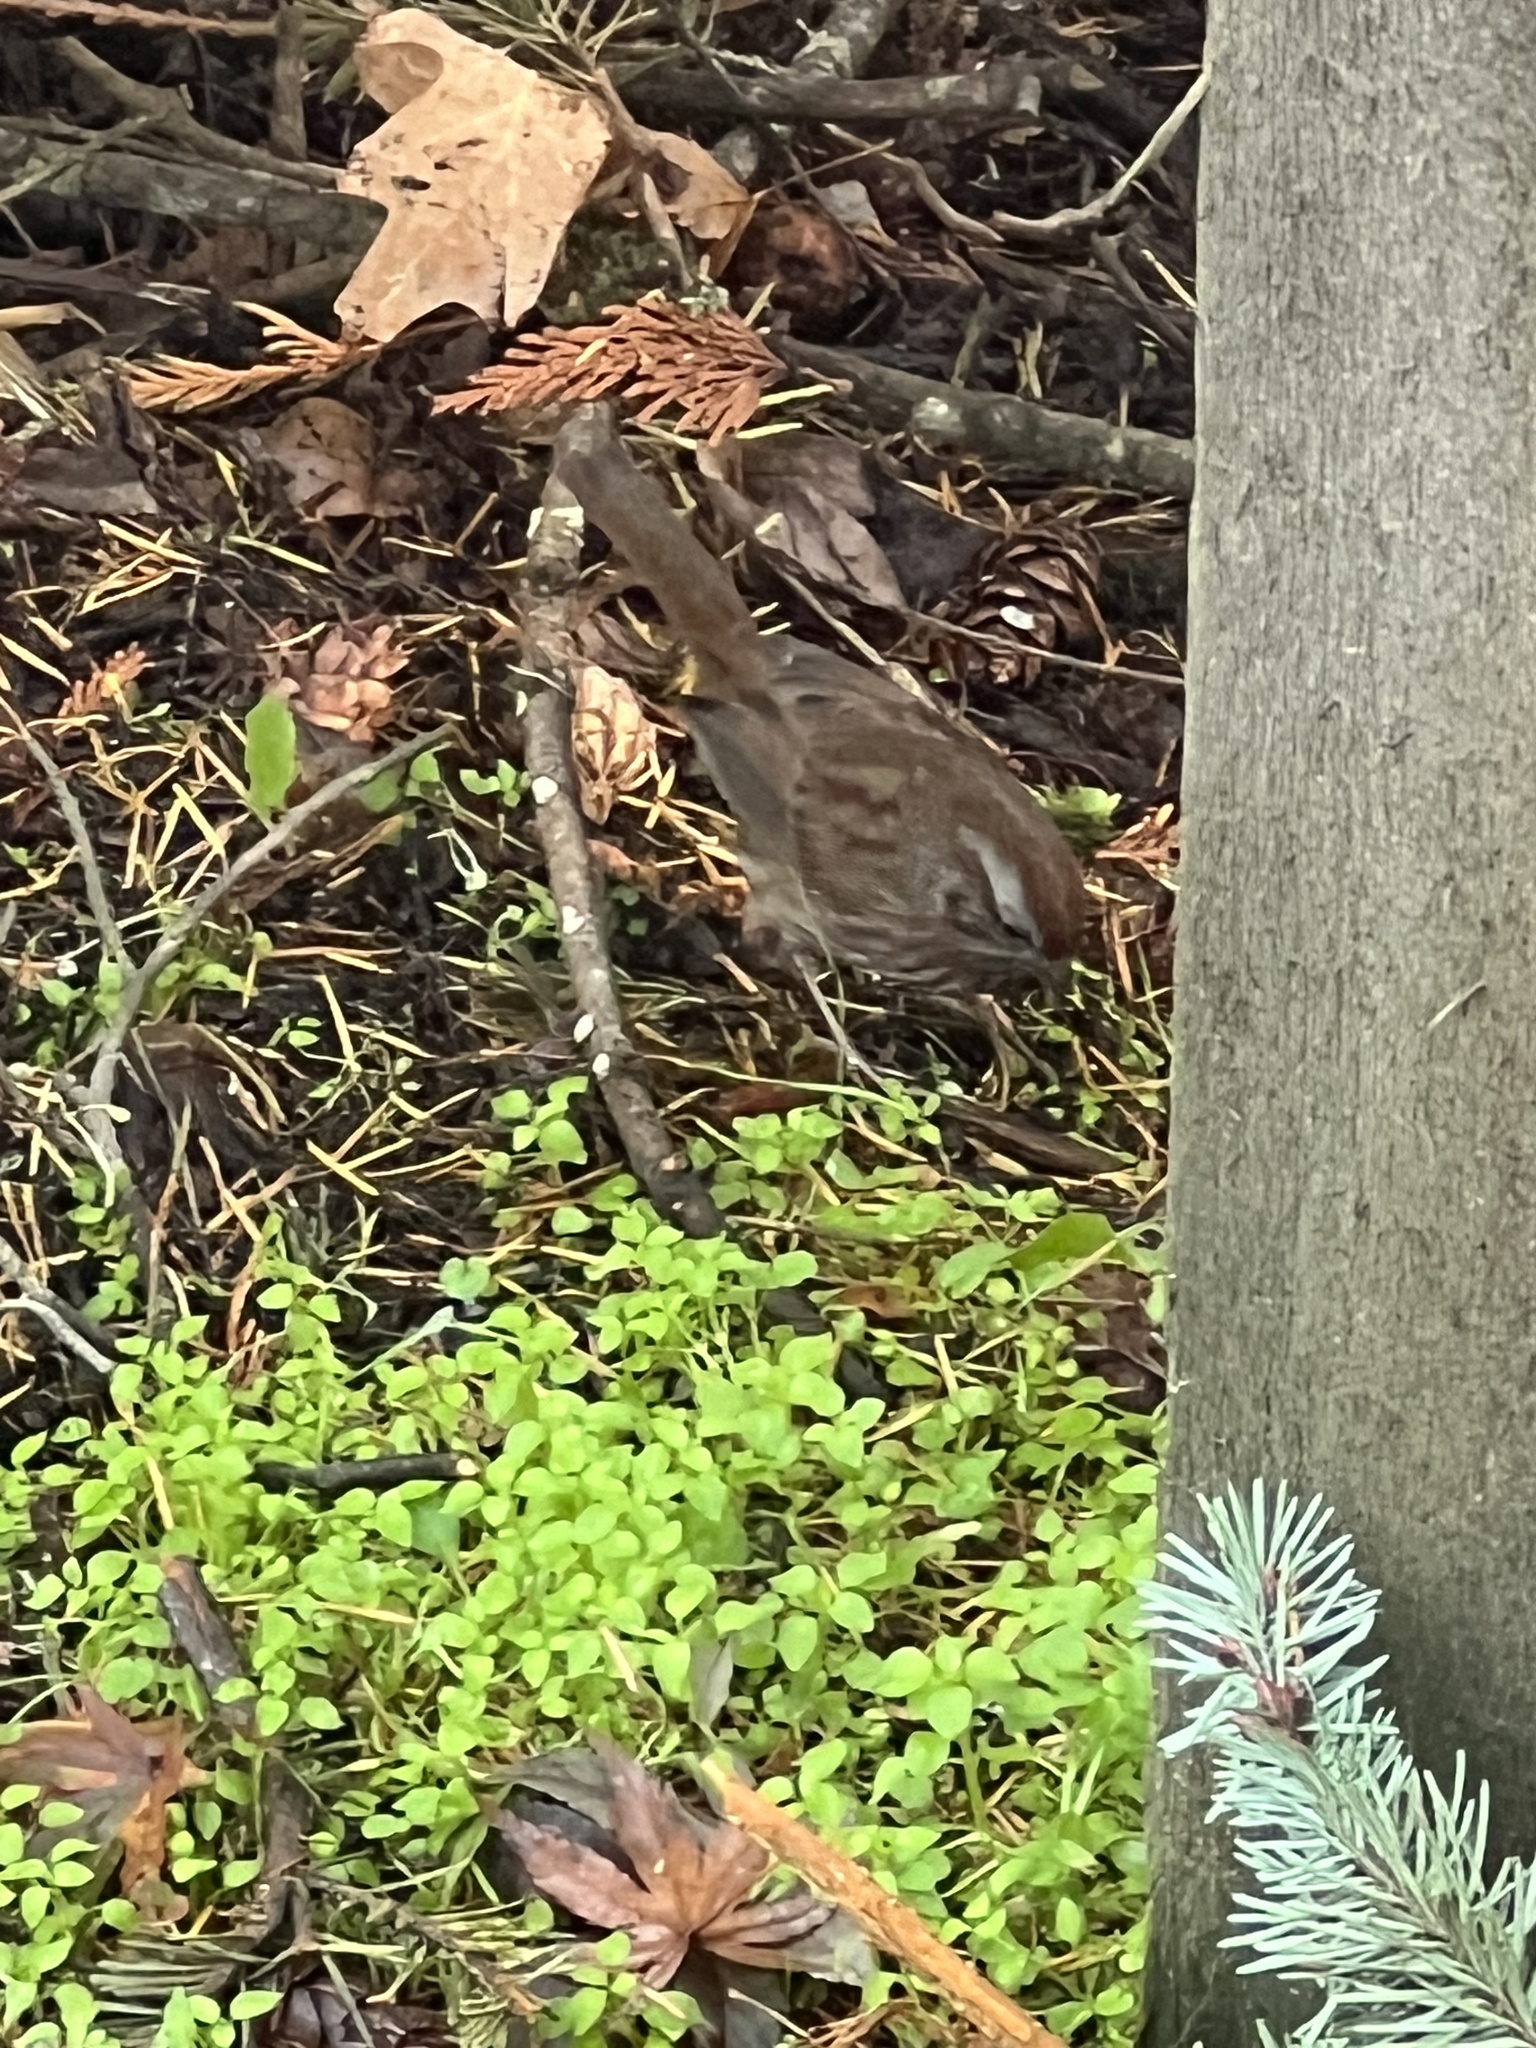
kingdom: Animalia
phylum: Chordata
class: Aves
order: Passeriformes
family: Passerellidae
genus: Melospiza
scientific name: Melospiza melodia
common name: Song sparrow
